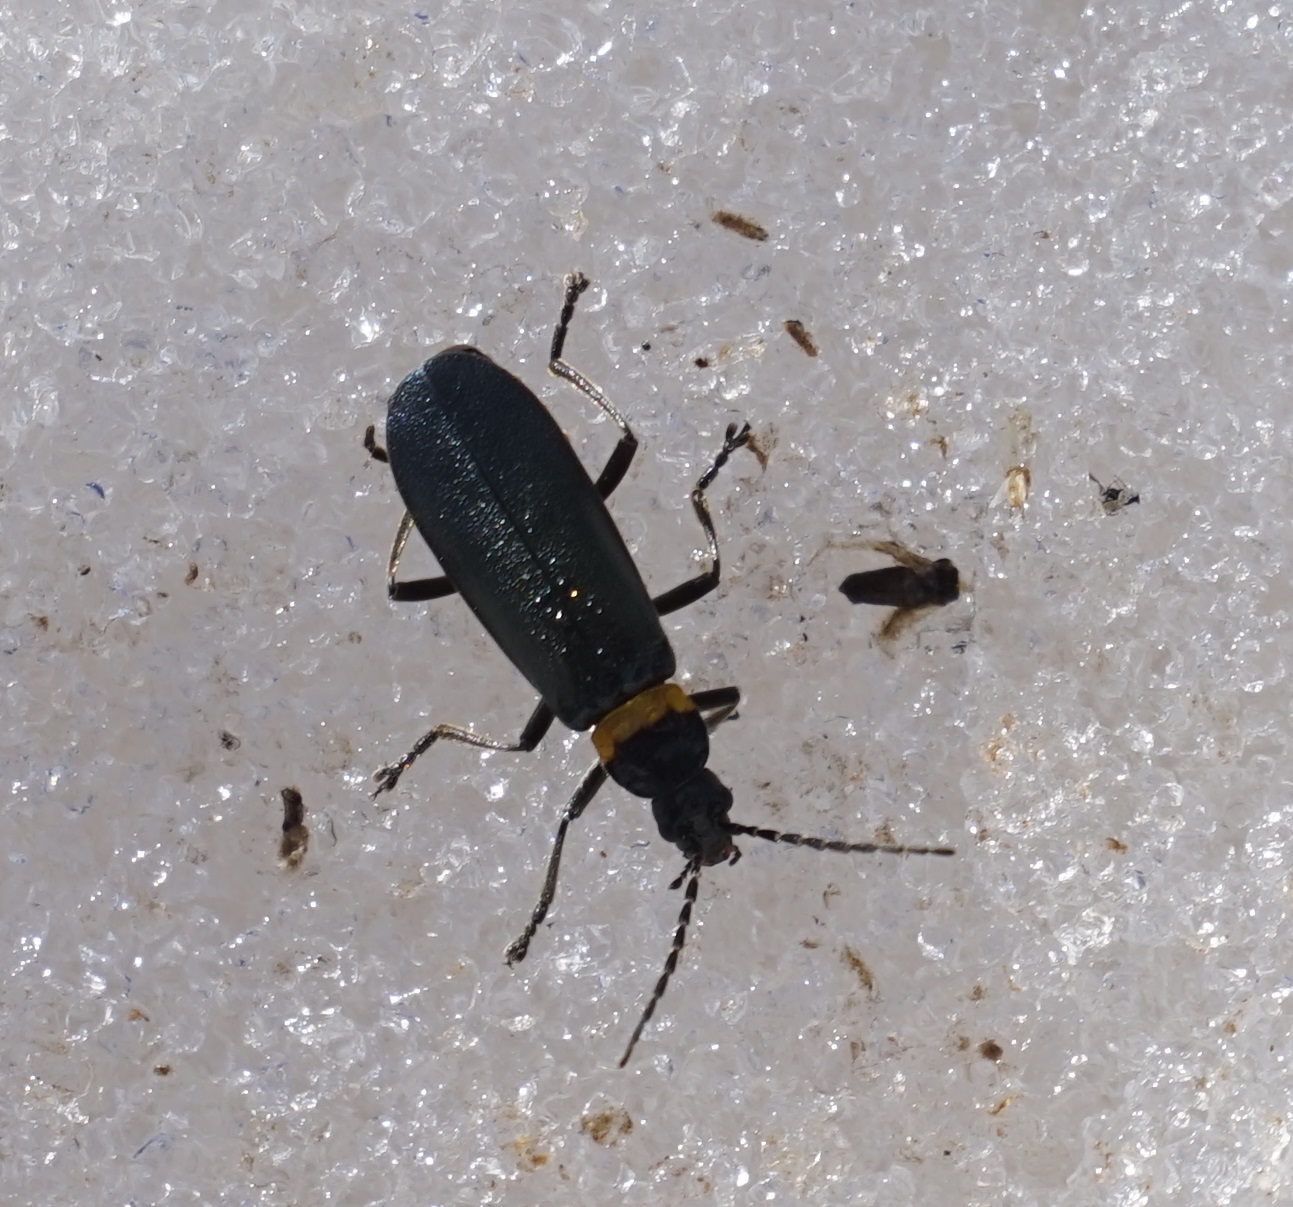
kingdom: Animalia
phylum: Arthropoda
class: Insecta
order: Coleoptera
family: Cantharidae
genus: Chauliognathus
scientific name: Chauliognathus
